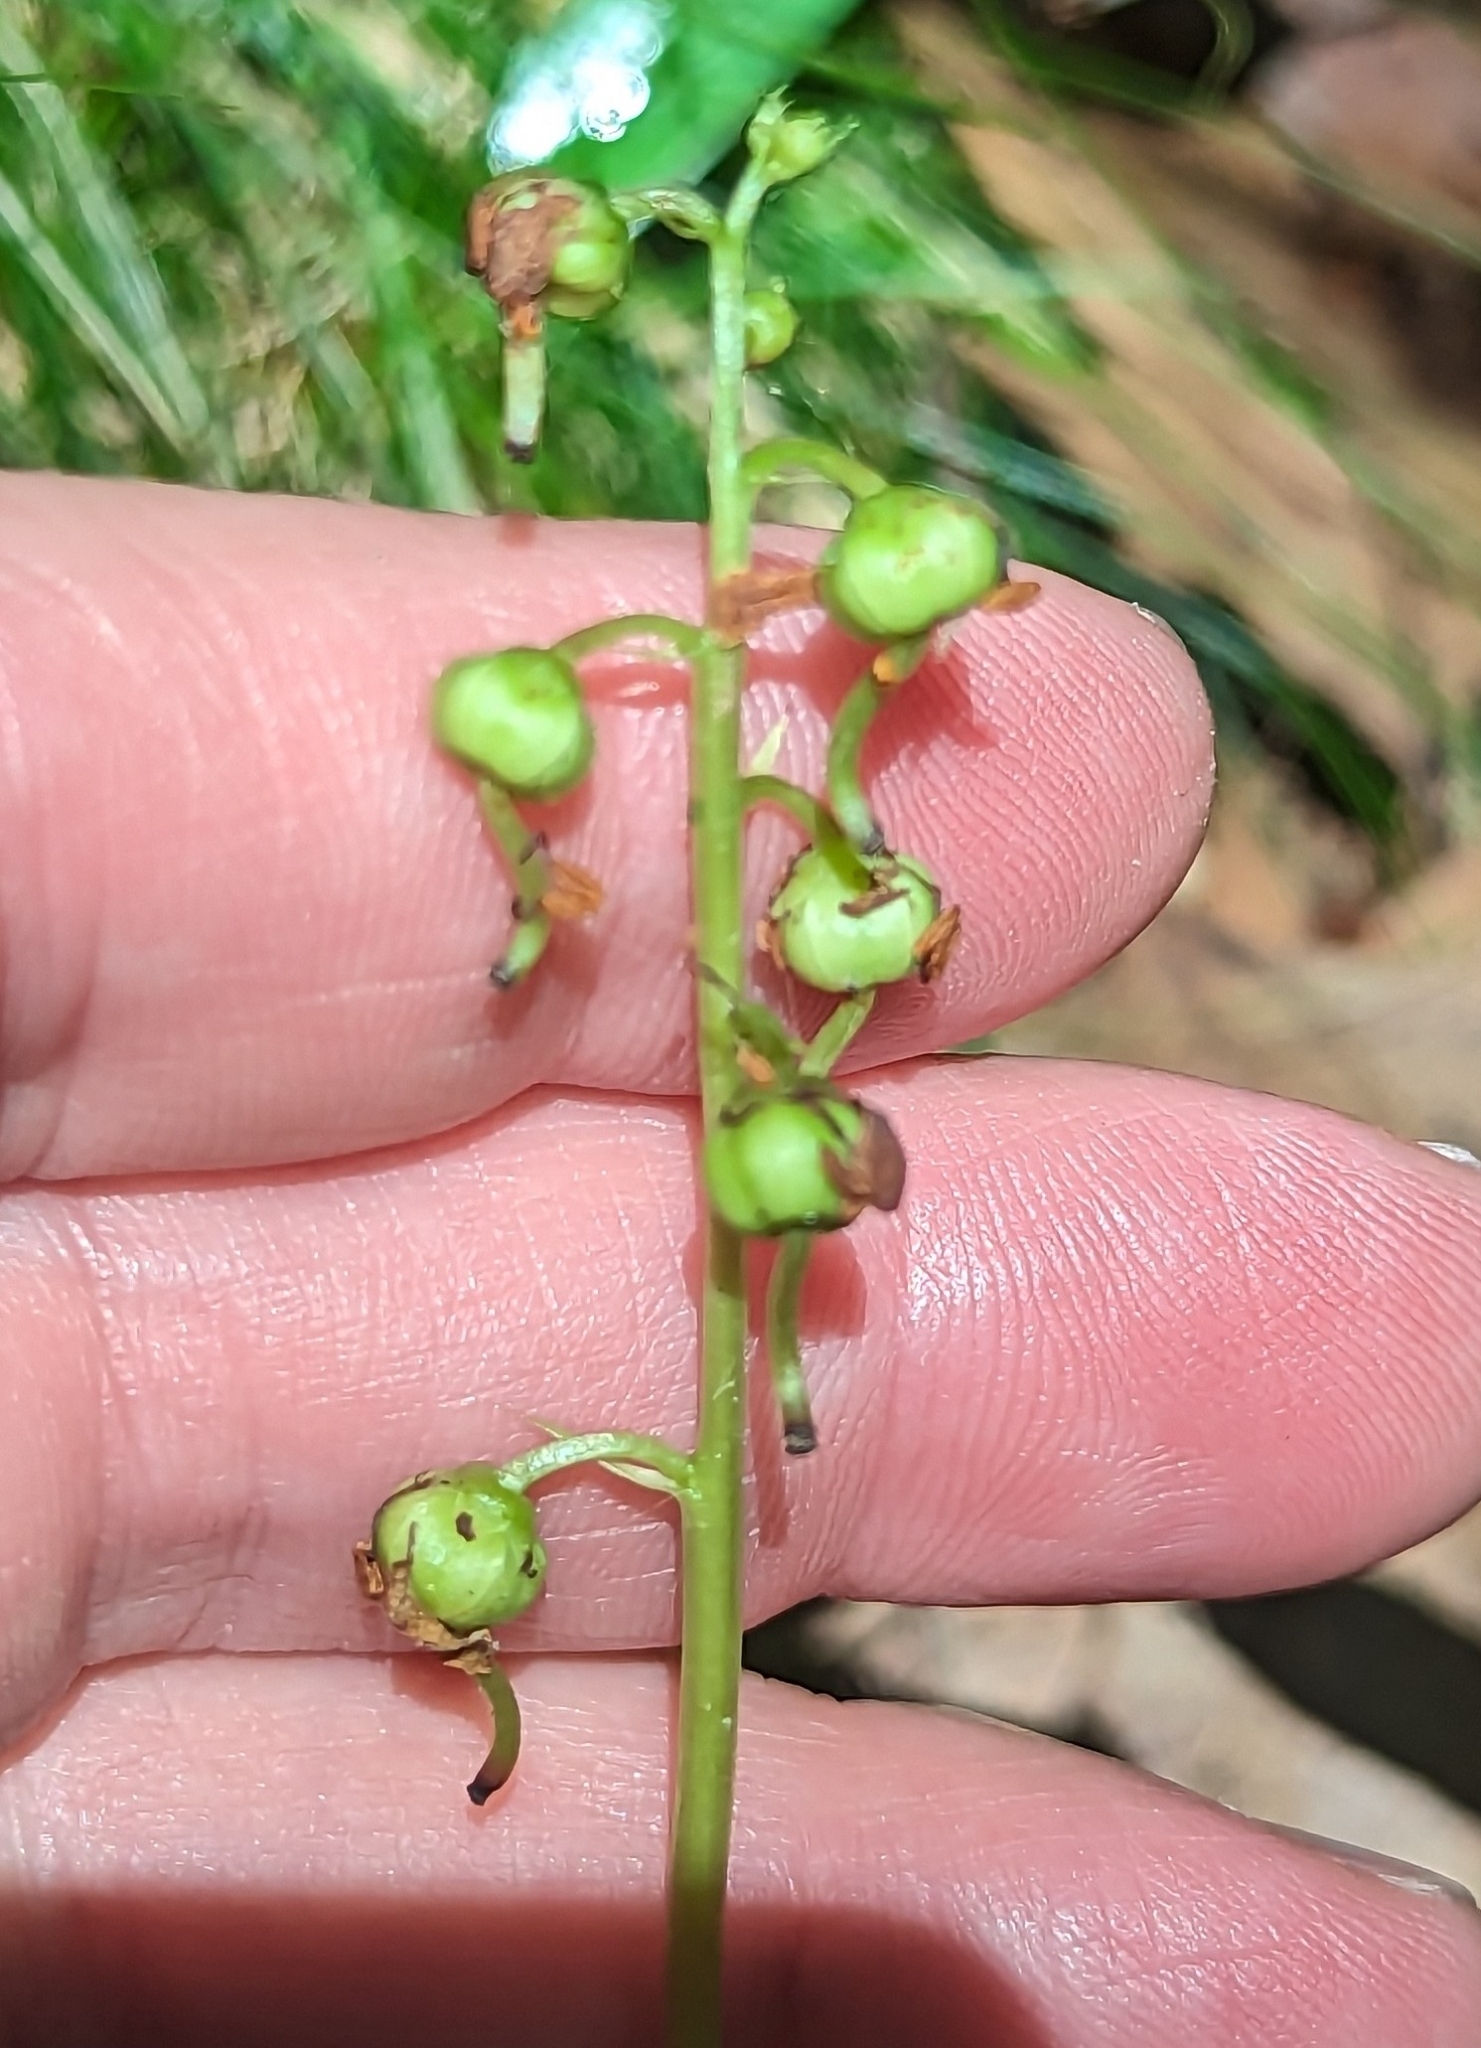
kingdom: Plantae
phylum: Tracheophyta
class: Magnoliopsida
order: Ericales
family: Ericaceae
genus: Pyrola
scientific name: Pyrola elliptica
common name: Shinleaf
